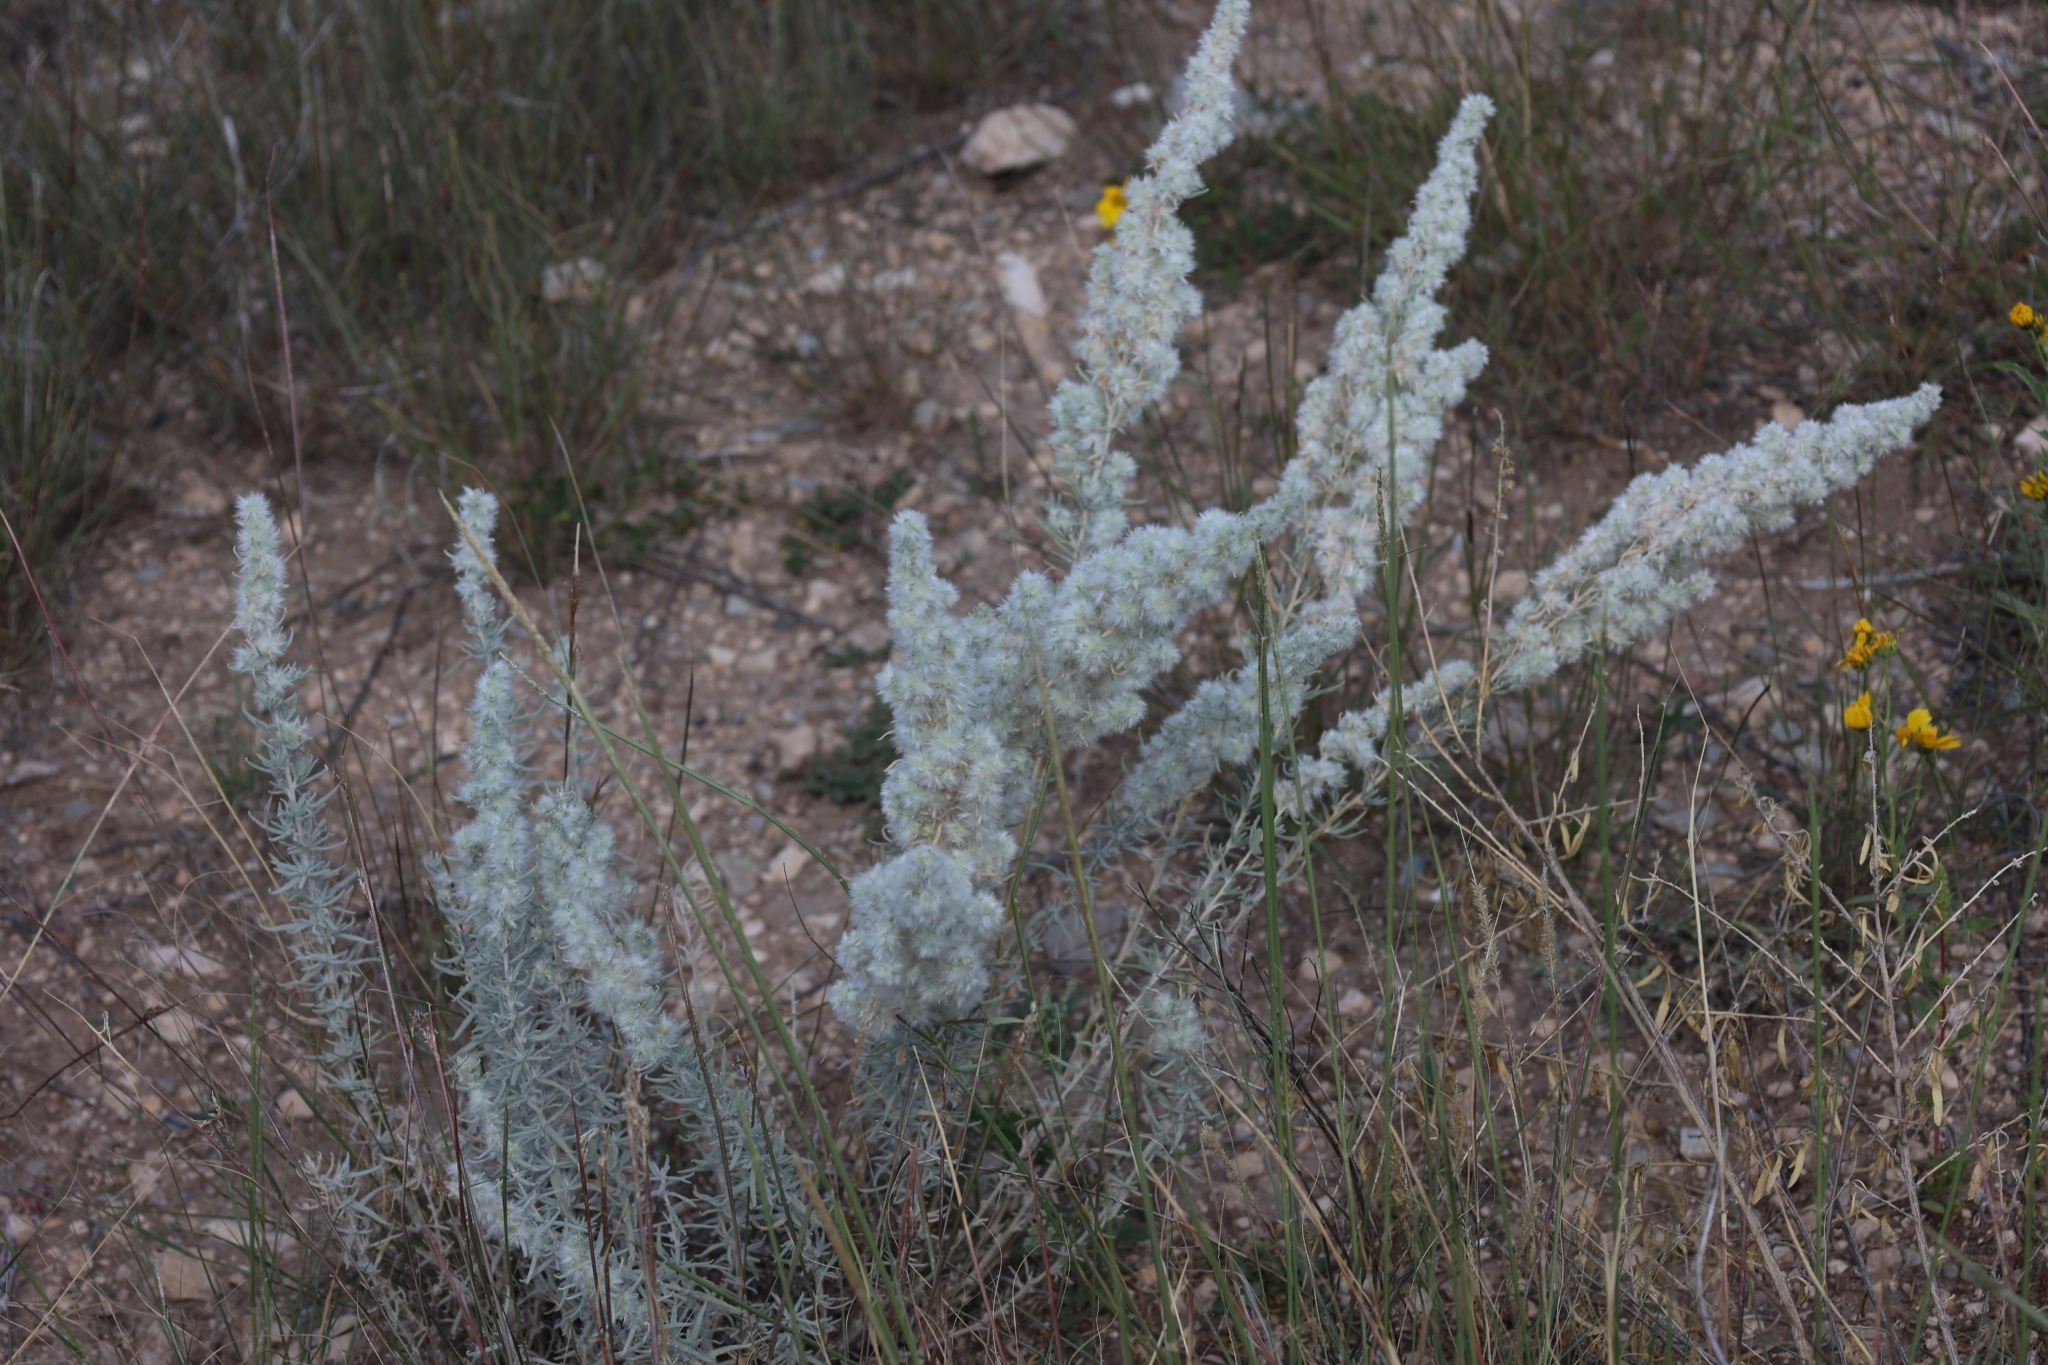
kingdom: Plantae
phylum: Tracheophyta
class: Magnoliopsida
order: Caryophyllales
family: Amaranthaceae
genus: Krascheninnikovia
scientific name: Krascheninnikovia lanata
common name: Winterfat
